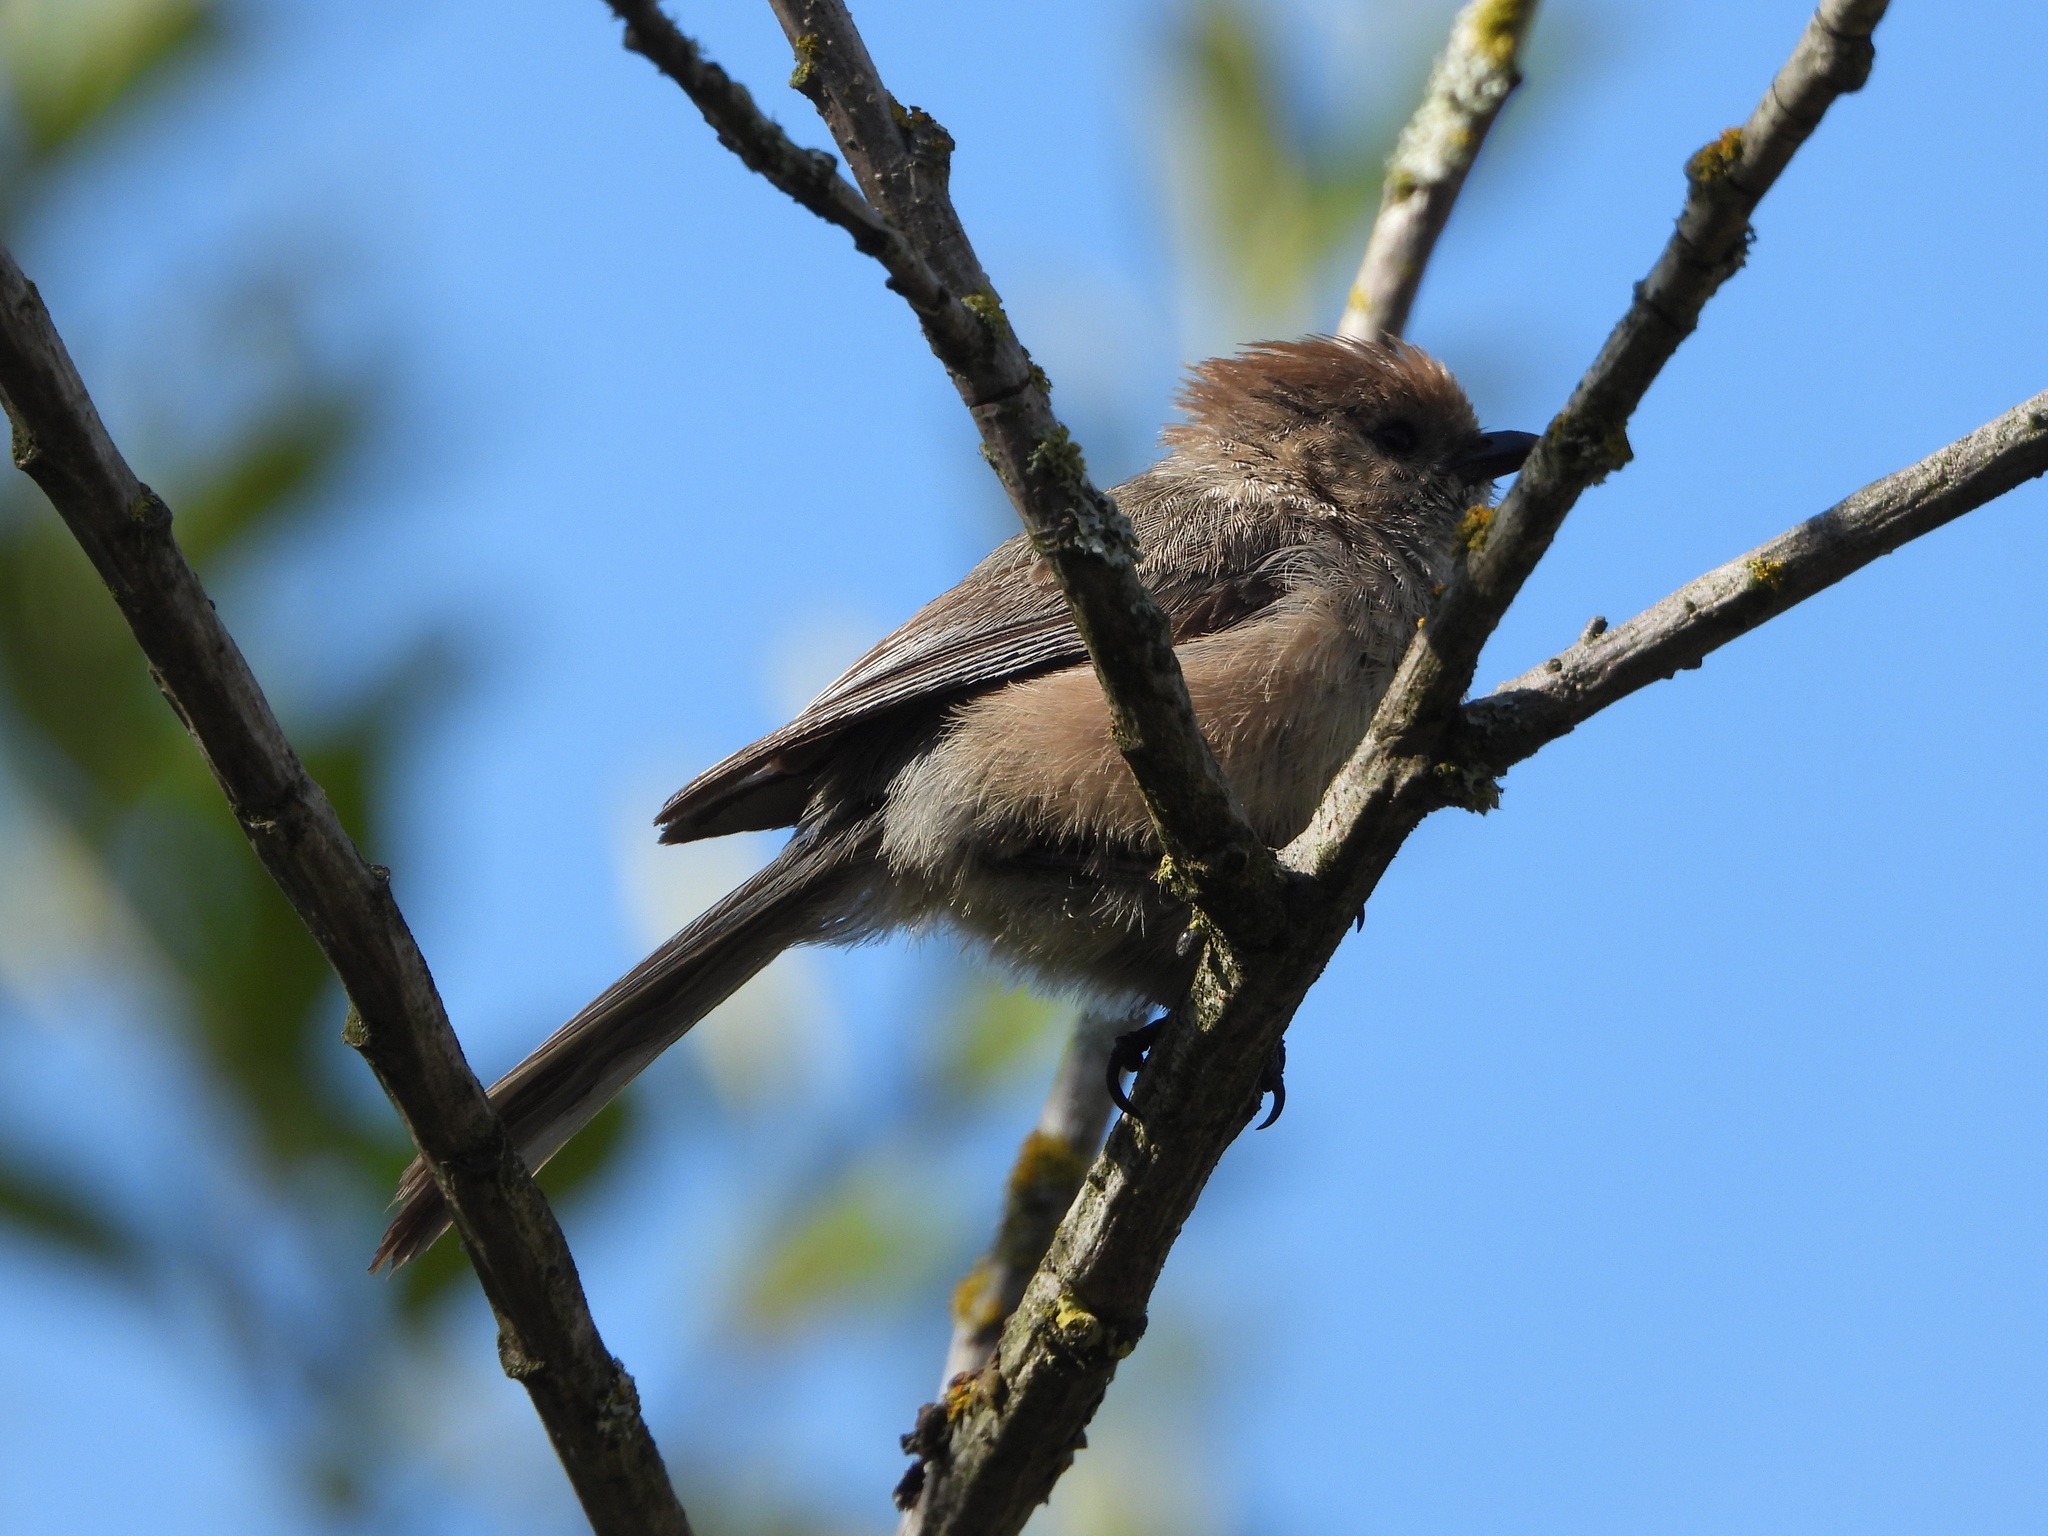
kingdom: Animalia
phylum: Chordata
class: Aves
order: Passeriformes
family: Aegithalidae
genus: Psaltriparus
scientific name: Psaltriparus minimus
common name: American bushtit
